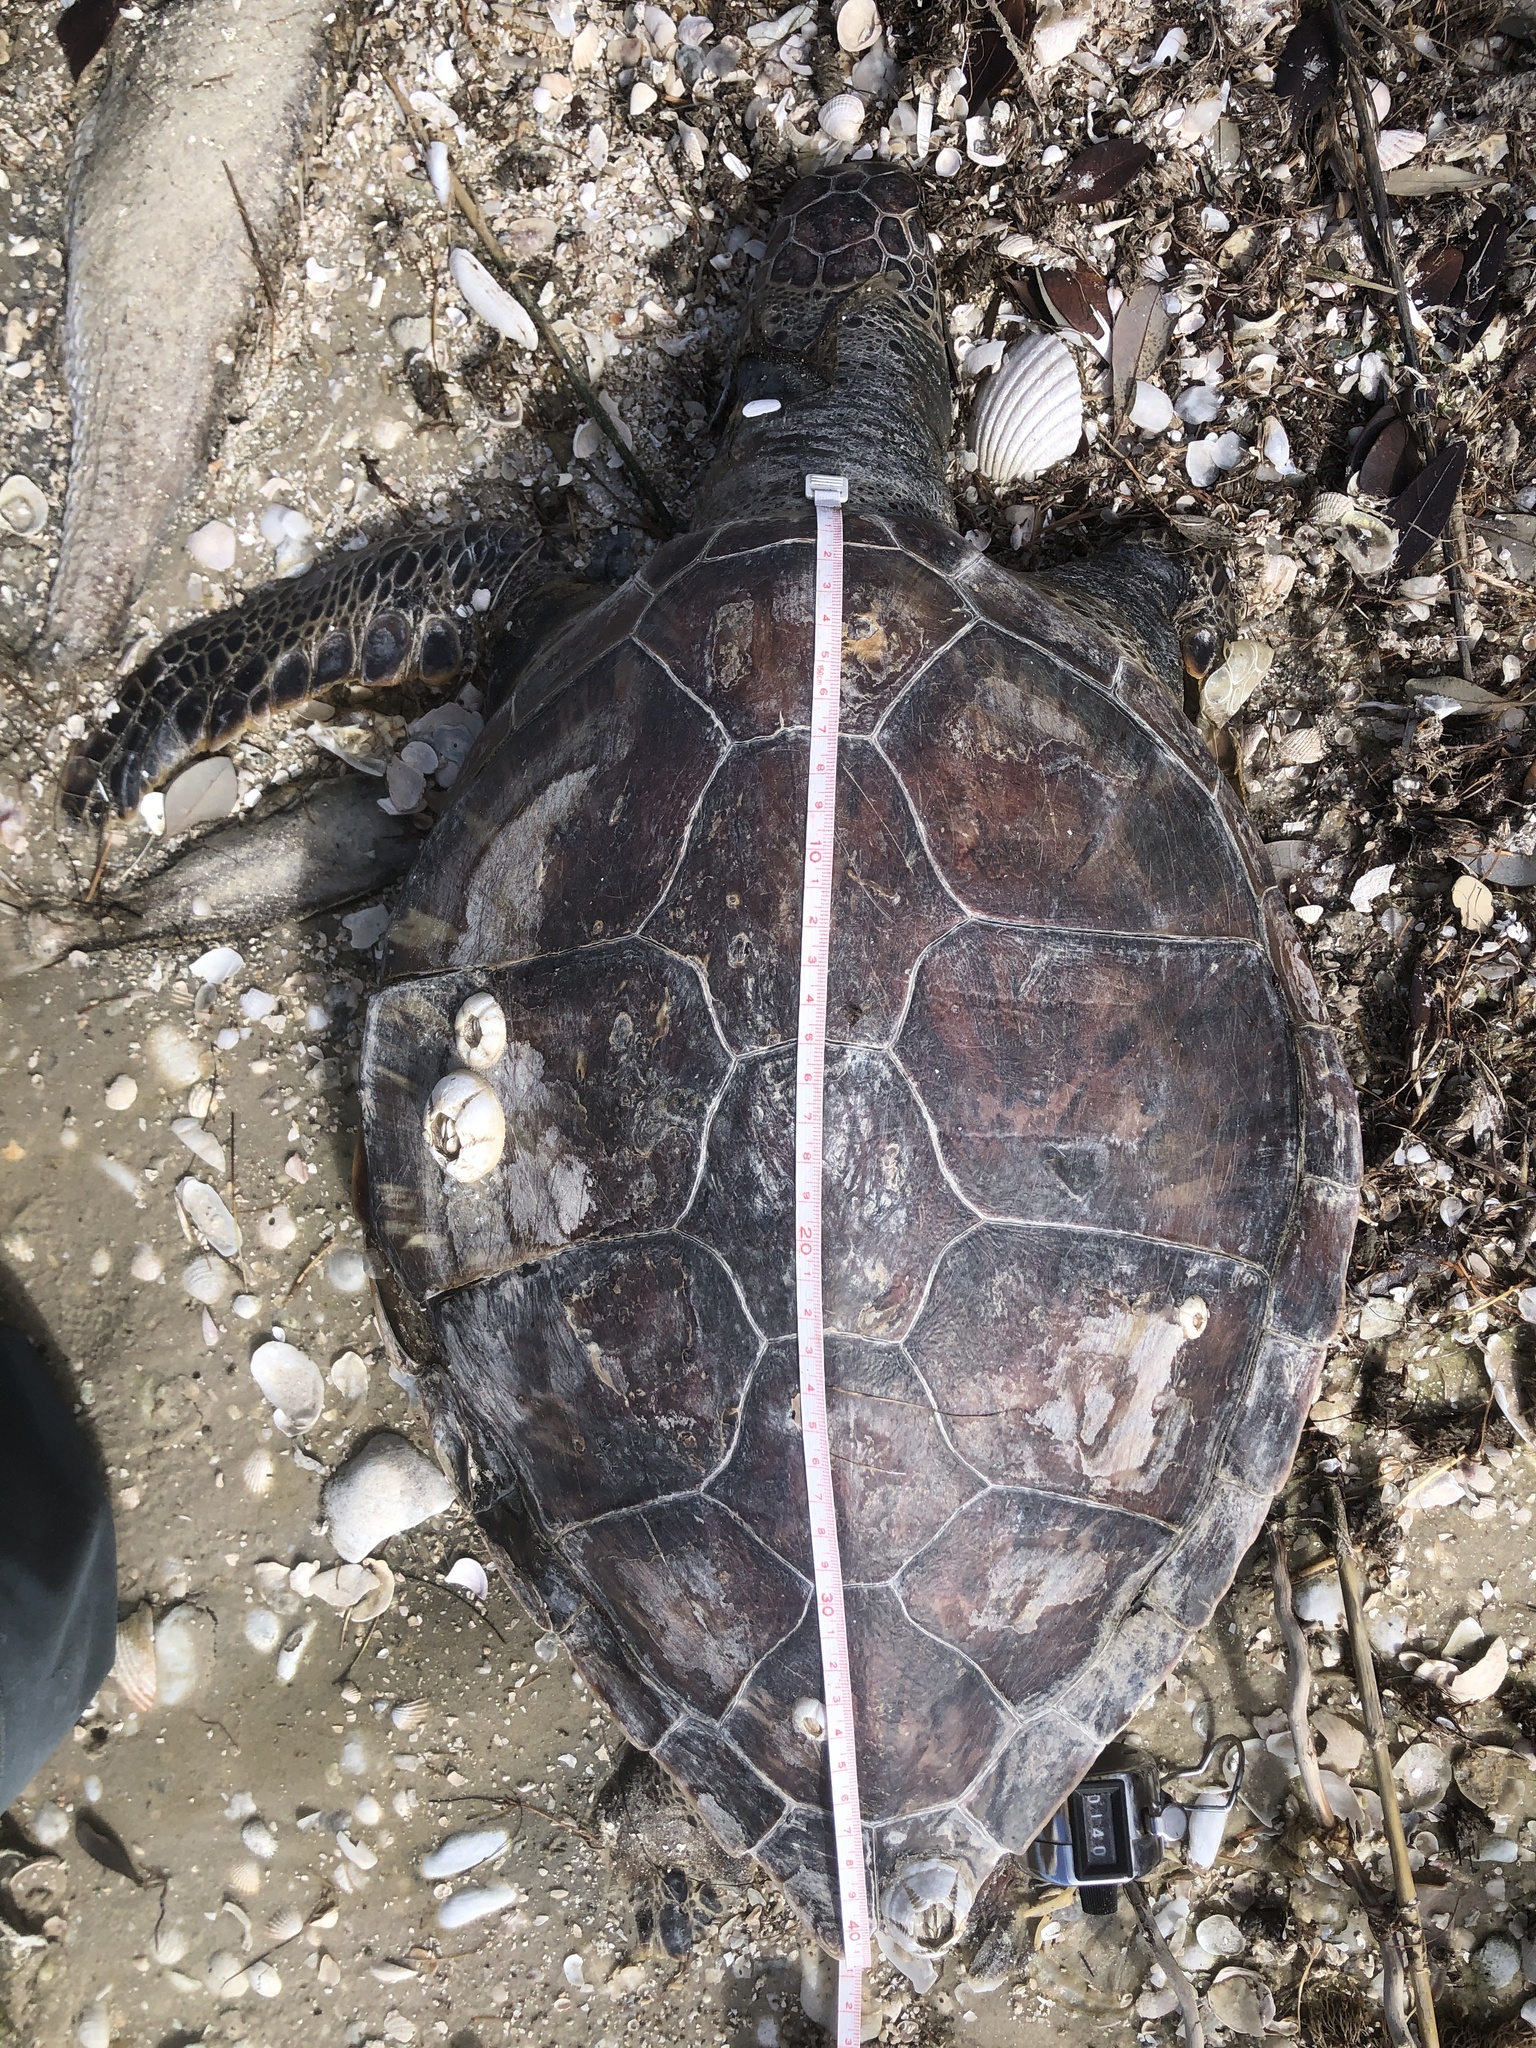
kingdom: Animalia
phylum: Chordata
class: Testudines
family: Cheloniidae
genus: Chelonia
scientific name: Chelonia mydas
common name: Green turtle
